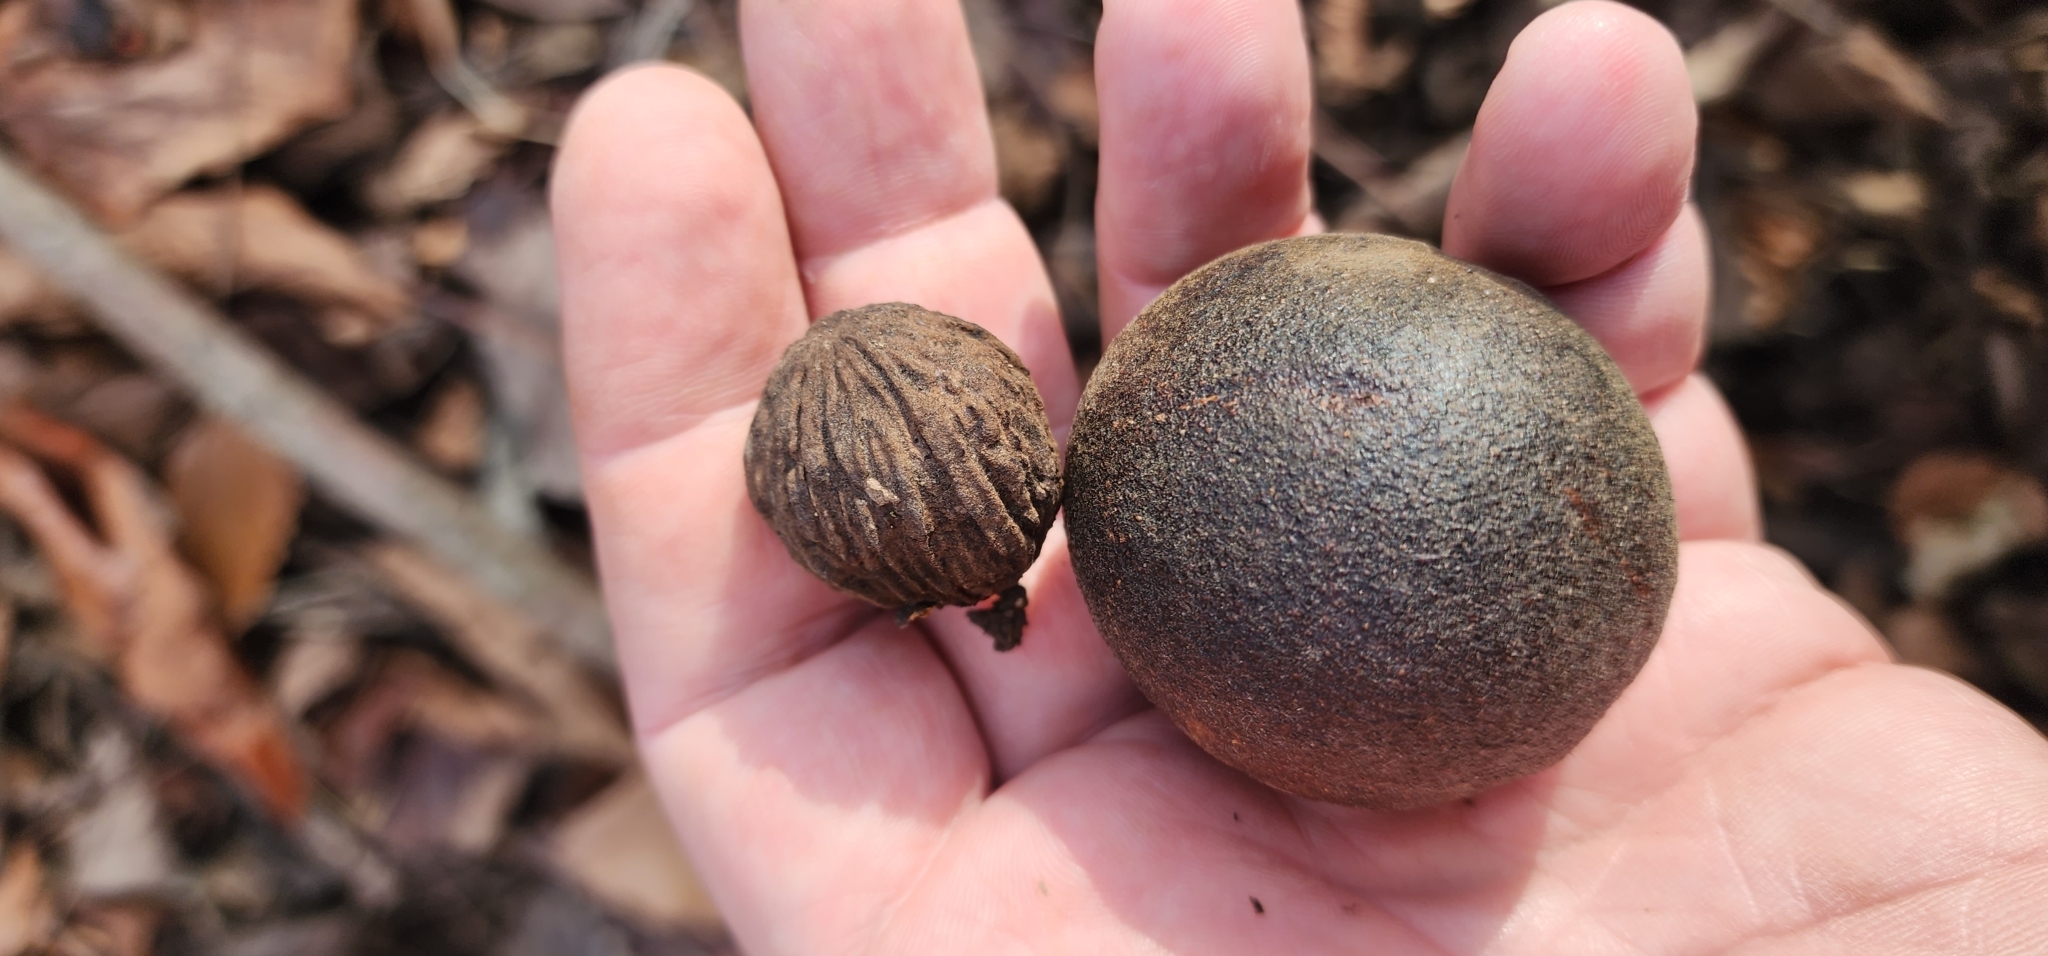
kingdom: Plantae
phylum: Tracheophyta
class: Magnoliopsida
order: Fagales
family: Juglandaceae
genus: Juglans
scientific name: Juglans nigra
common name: Black walnut
